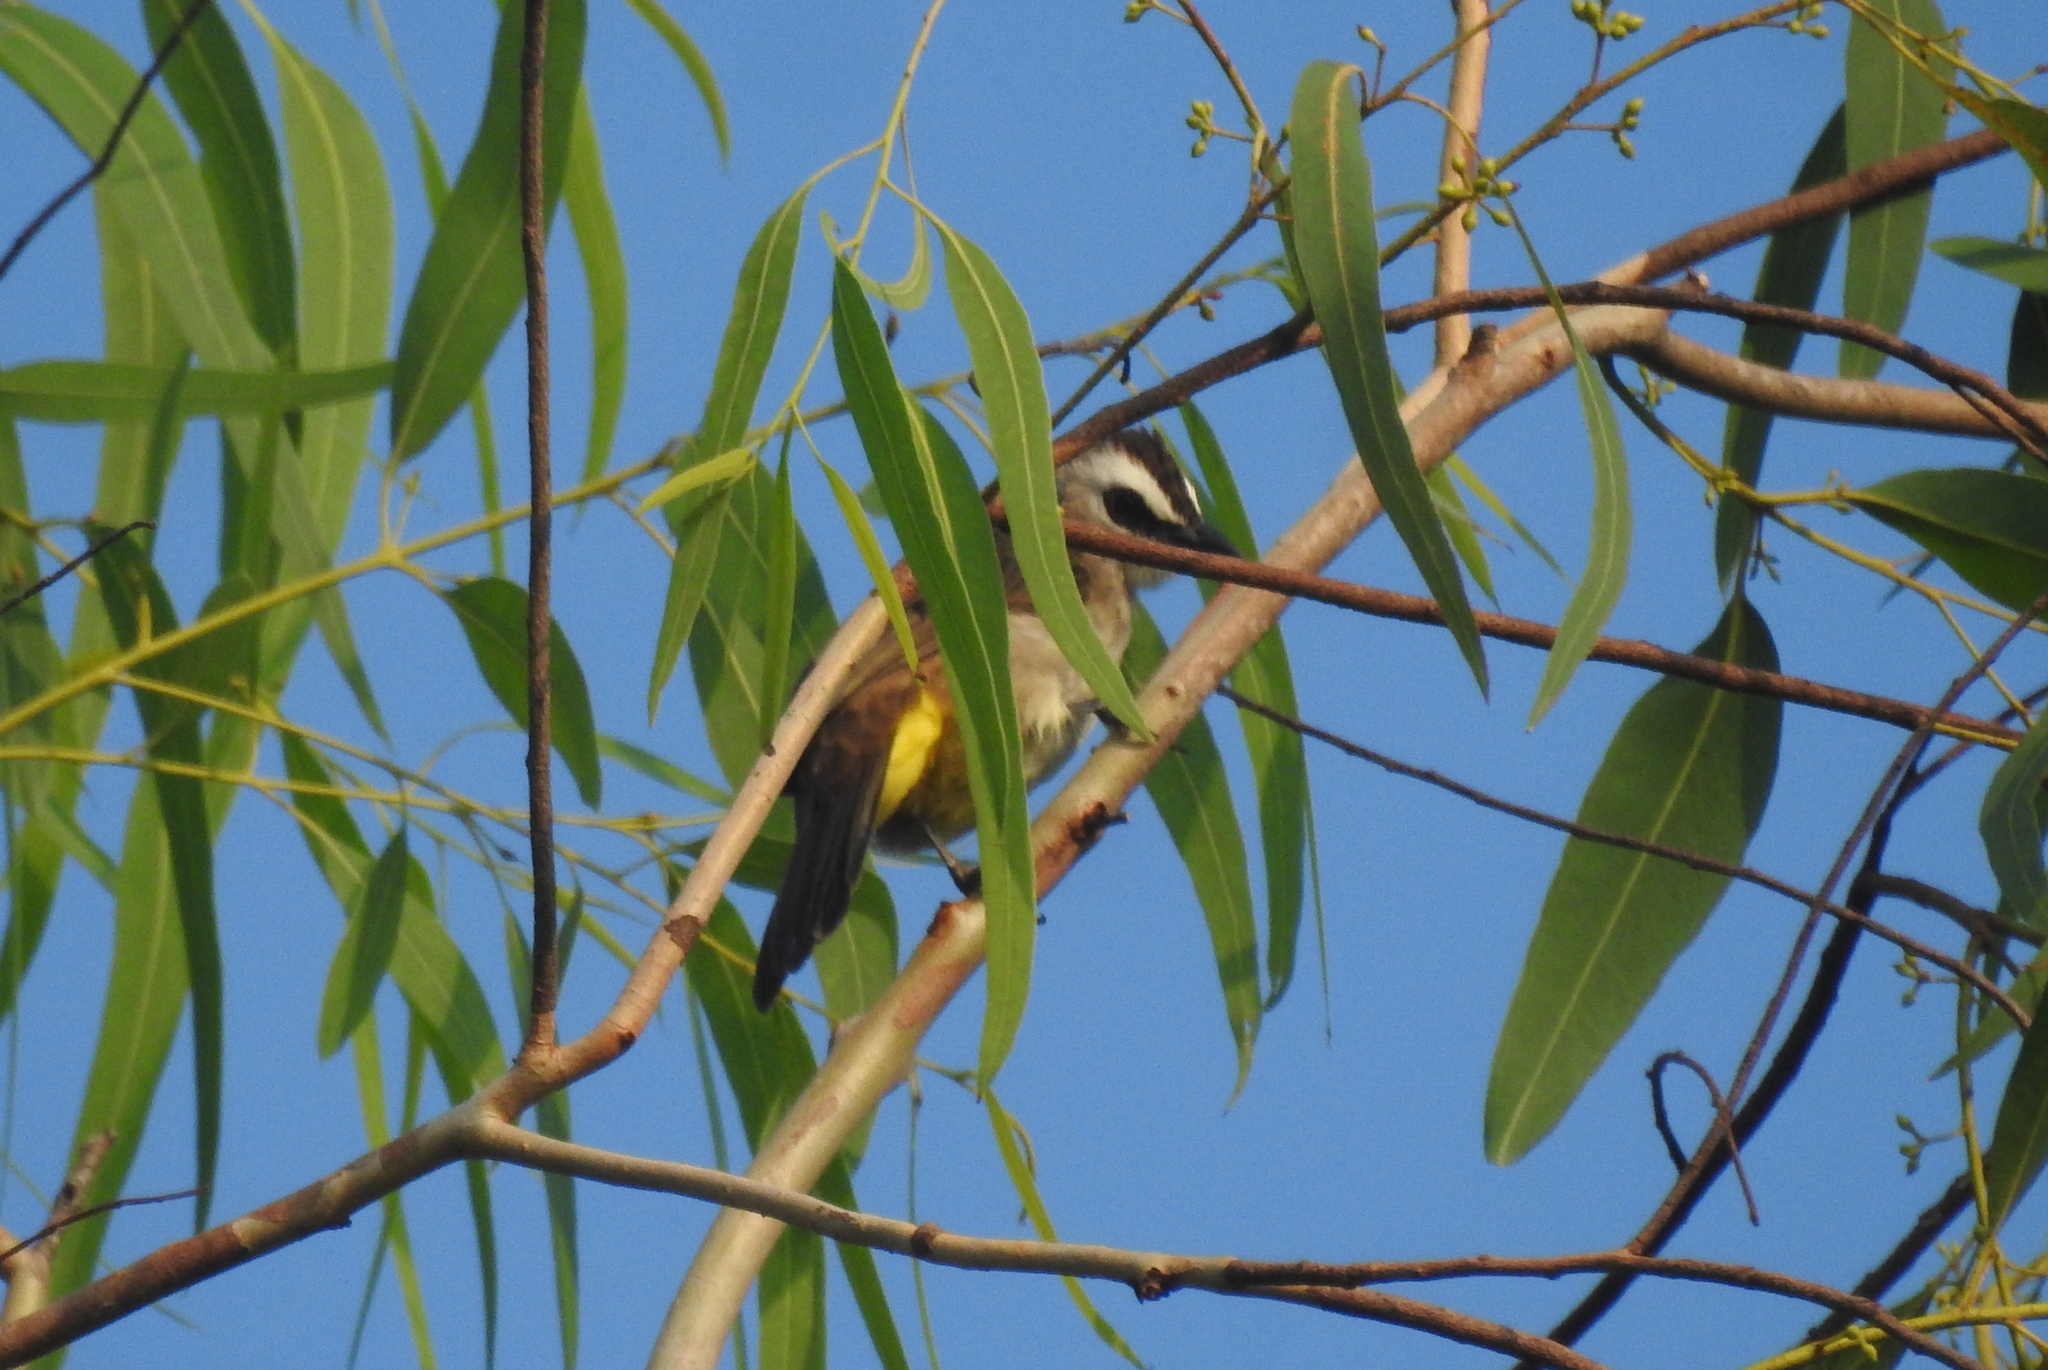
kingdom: Animalia
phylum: Chordata
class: Aves
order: Passeriformes
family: Pycnonotidae
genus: Pycnonotus
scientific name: Pycnonotus goiavier
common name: Yellow-vented bulbul
